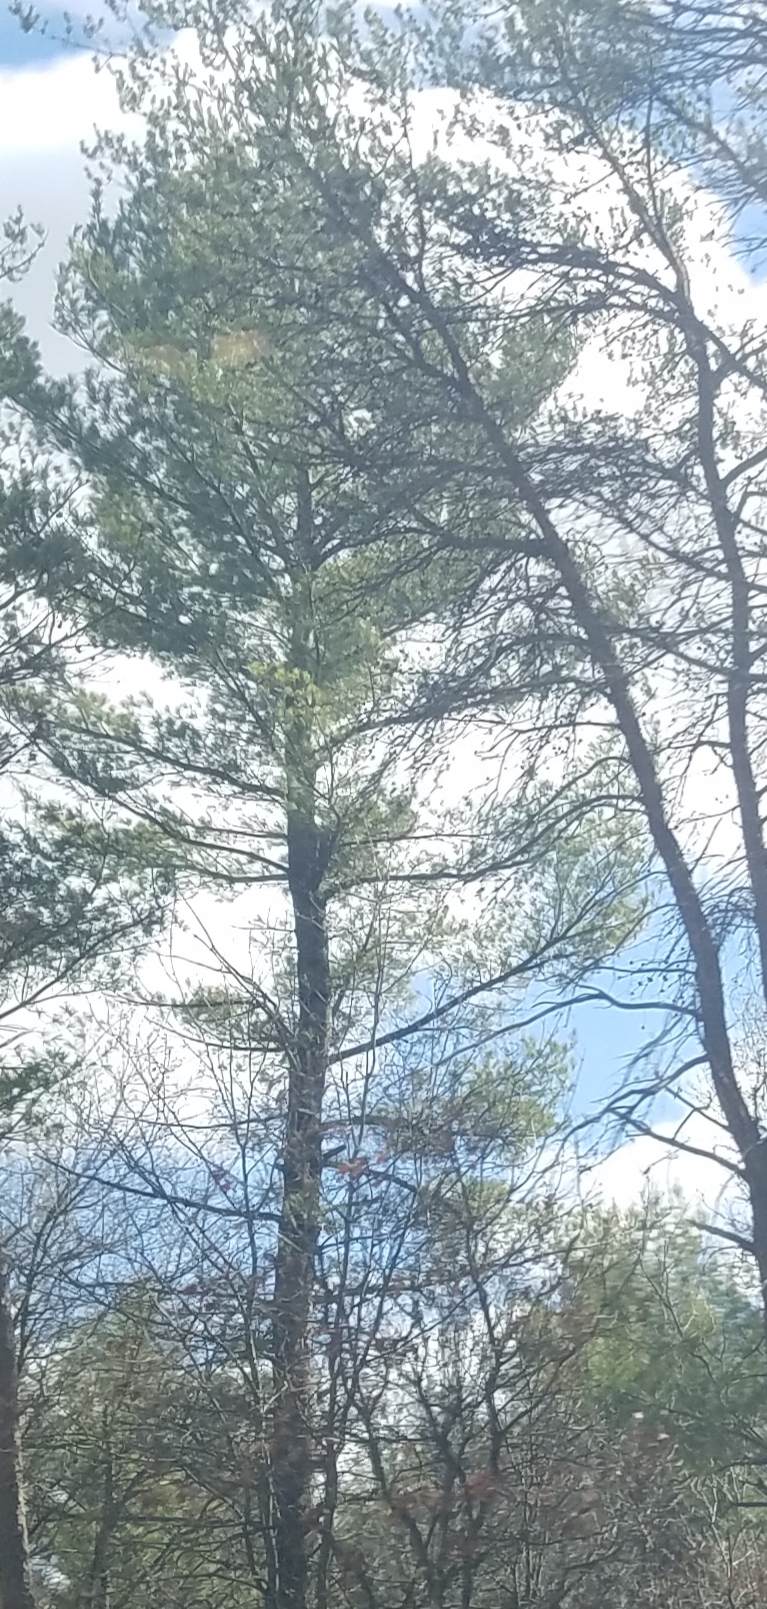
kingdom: Plantae
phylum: Tracheophyta
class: Pinopsida
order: Pinales
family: Pinaceae
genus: Pinus
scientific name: Pinus strobus
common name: Weymouth pine
